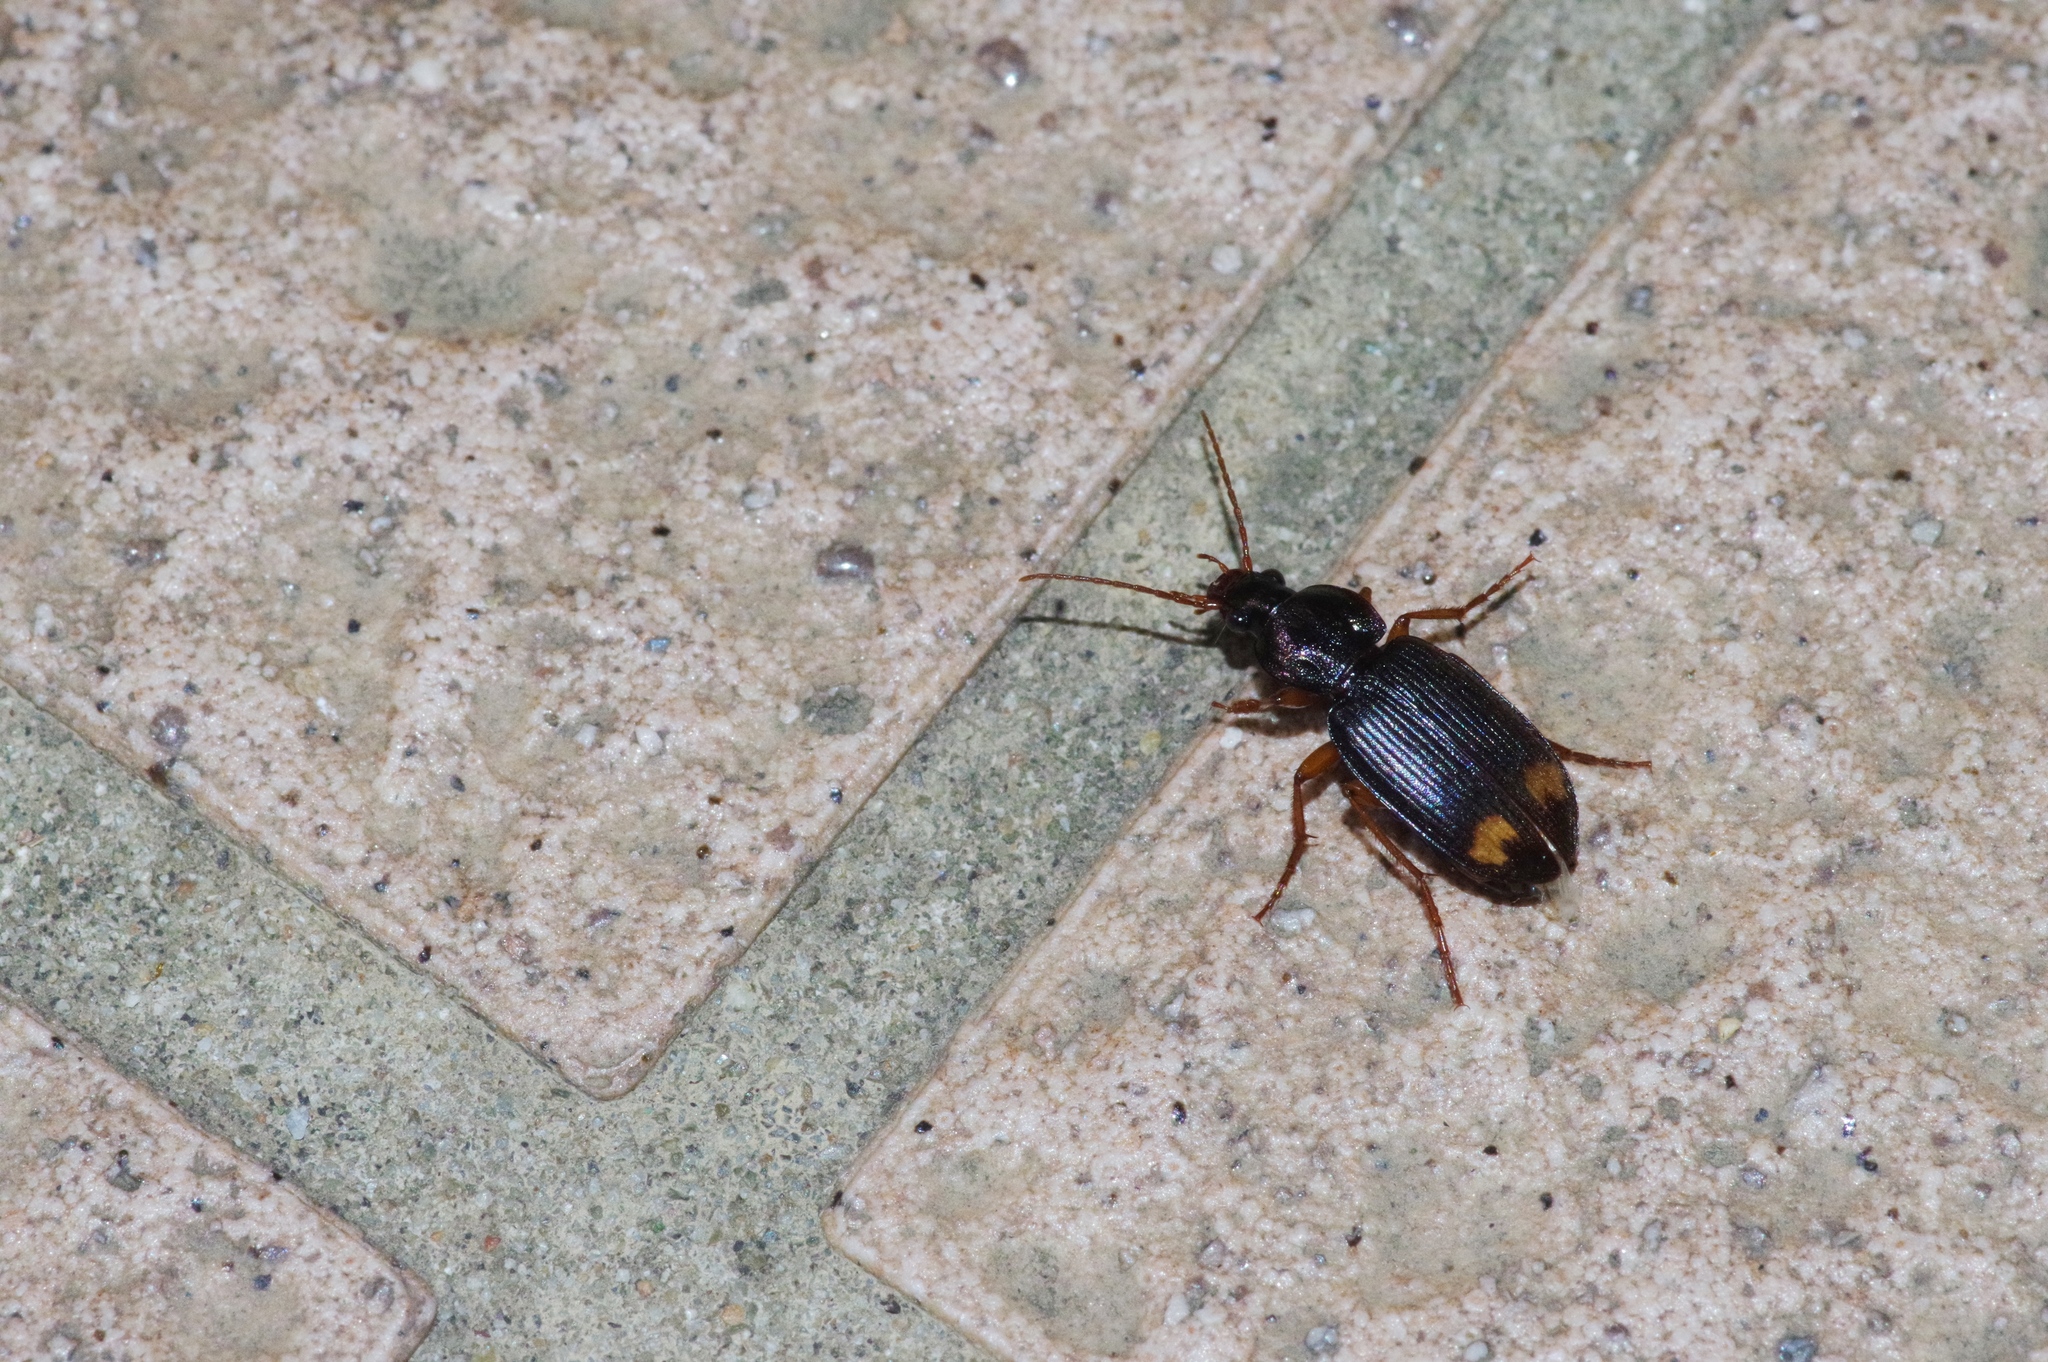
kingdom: Animalia
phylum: Arthropoda
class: Insecta
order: Coleoptera
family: Carabidae
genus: Chlaenius
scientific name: Chlaenius tetragonoderus
